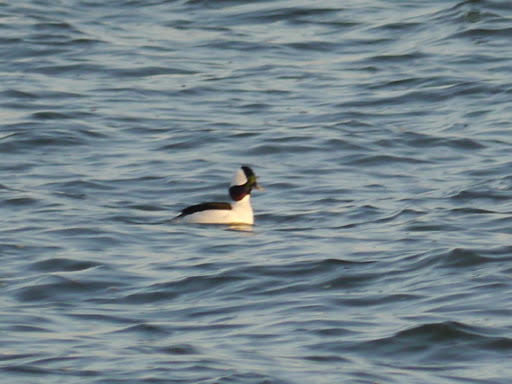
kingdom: Animalia
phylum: Chordata
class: Aves
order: Anseriformes
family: Anatidae
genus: Bucephala
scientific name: Bucephala albeola
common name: Bufflehead
